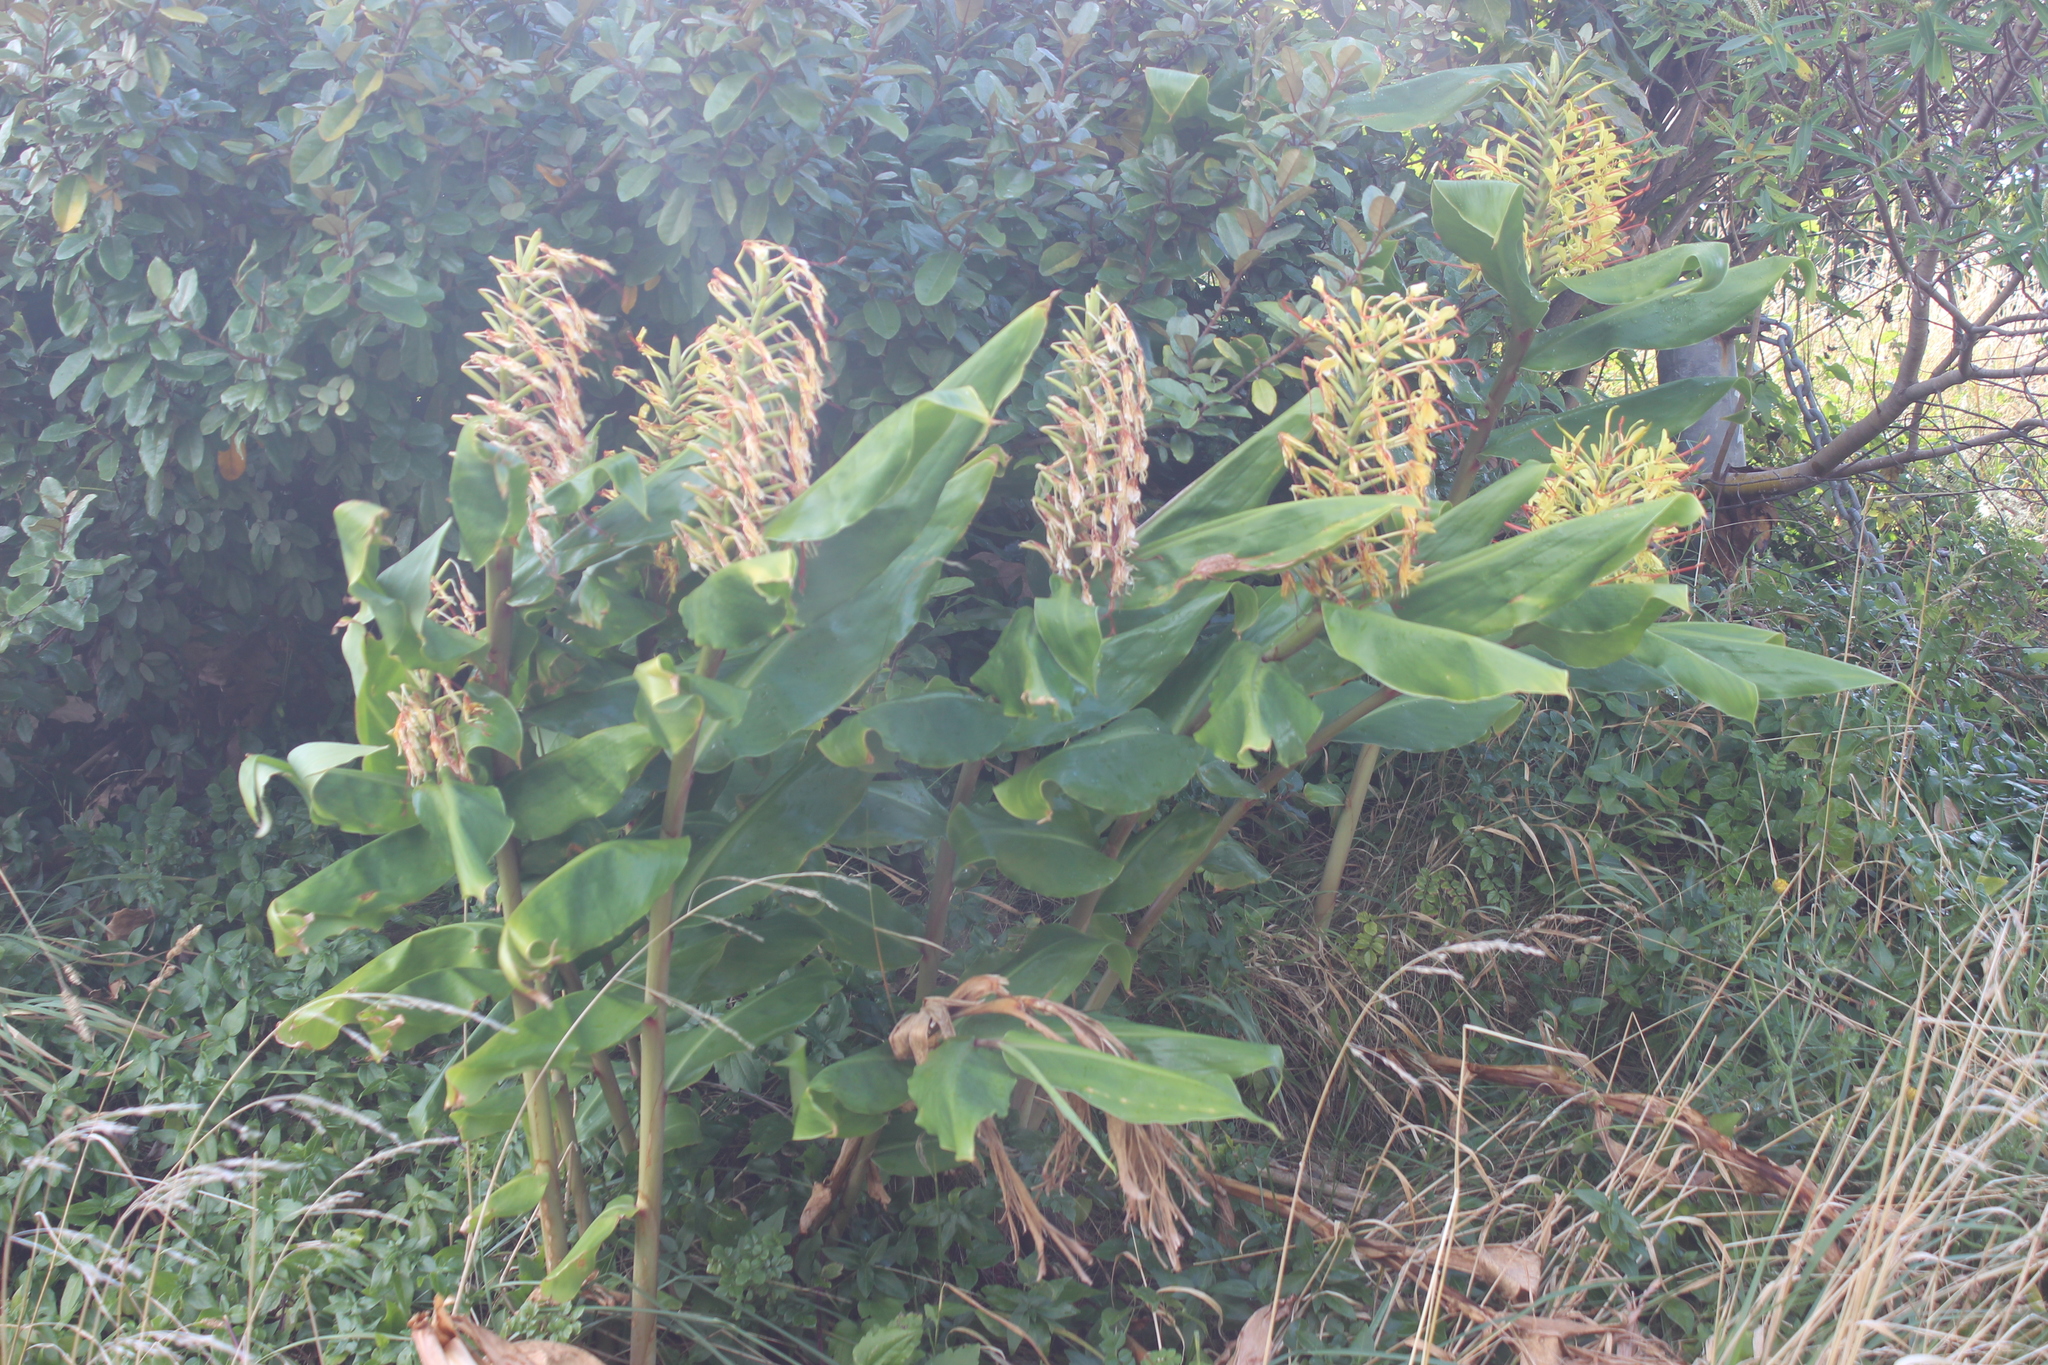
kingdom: Plantae
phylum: Tracheophyta
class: Liliopsida
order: Zingiberales
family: Zingiberaceae
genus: Hedychium
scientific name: Hedychium gardnerianum
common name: Himalayan ginger
